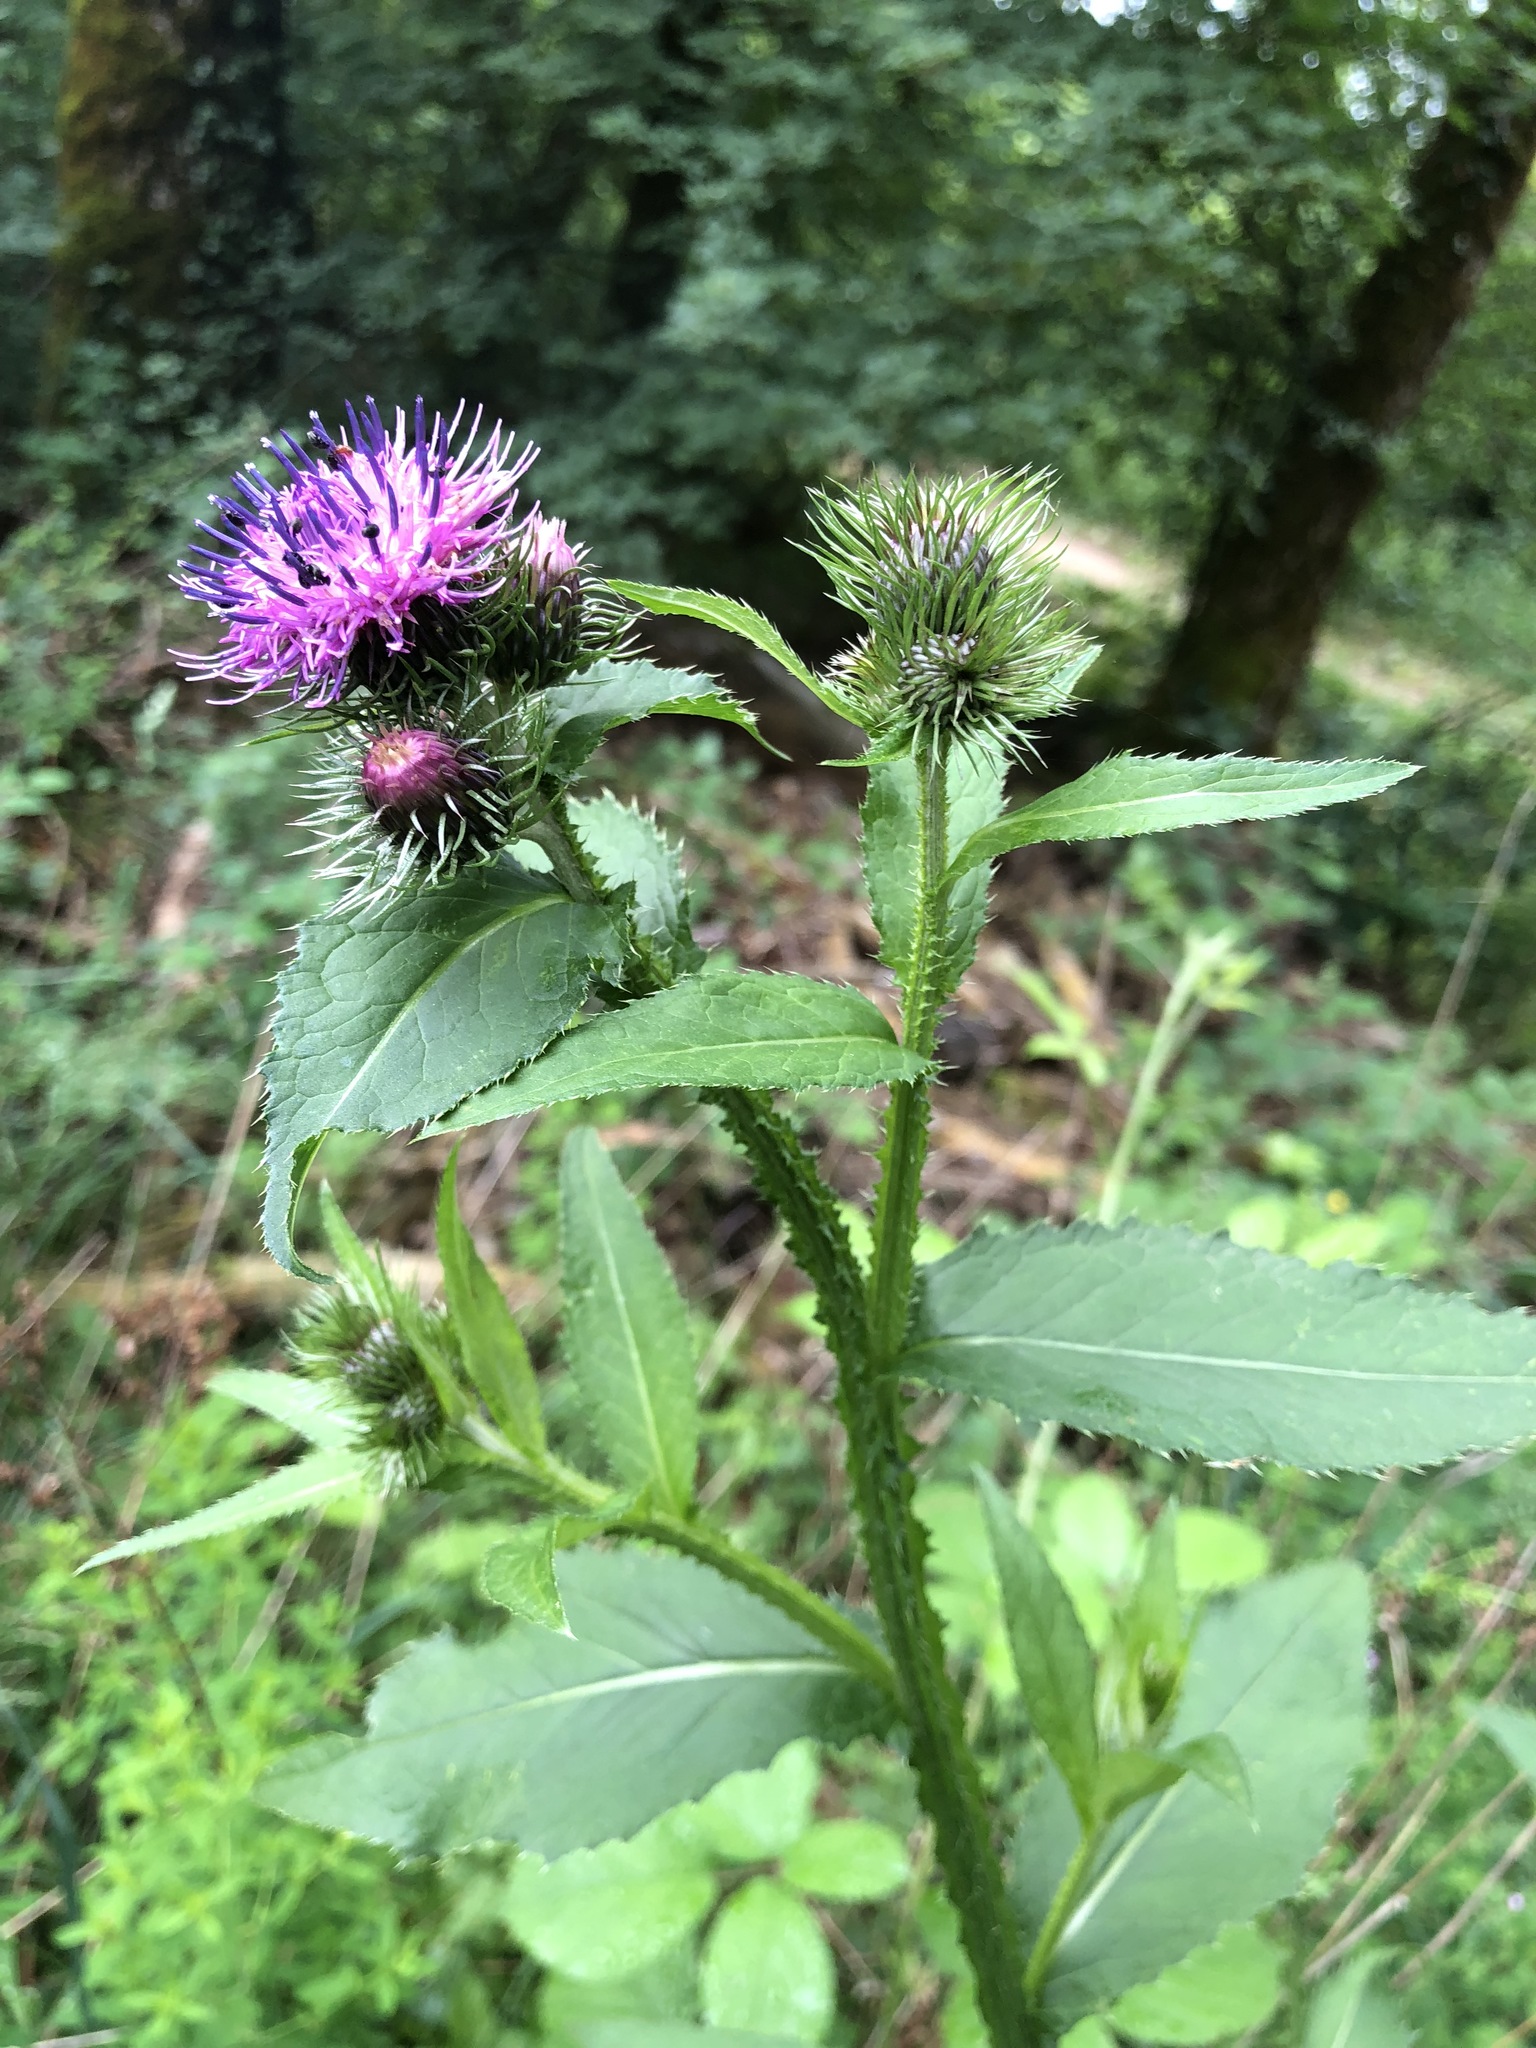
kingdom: Plantae
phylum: Tracheophyta
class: Magnoliopsida
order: Asterales
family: Asteraceae
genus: Carduus
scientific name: Carduus personata
